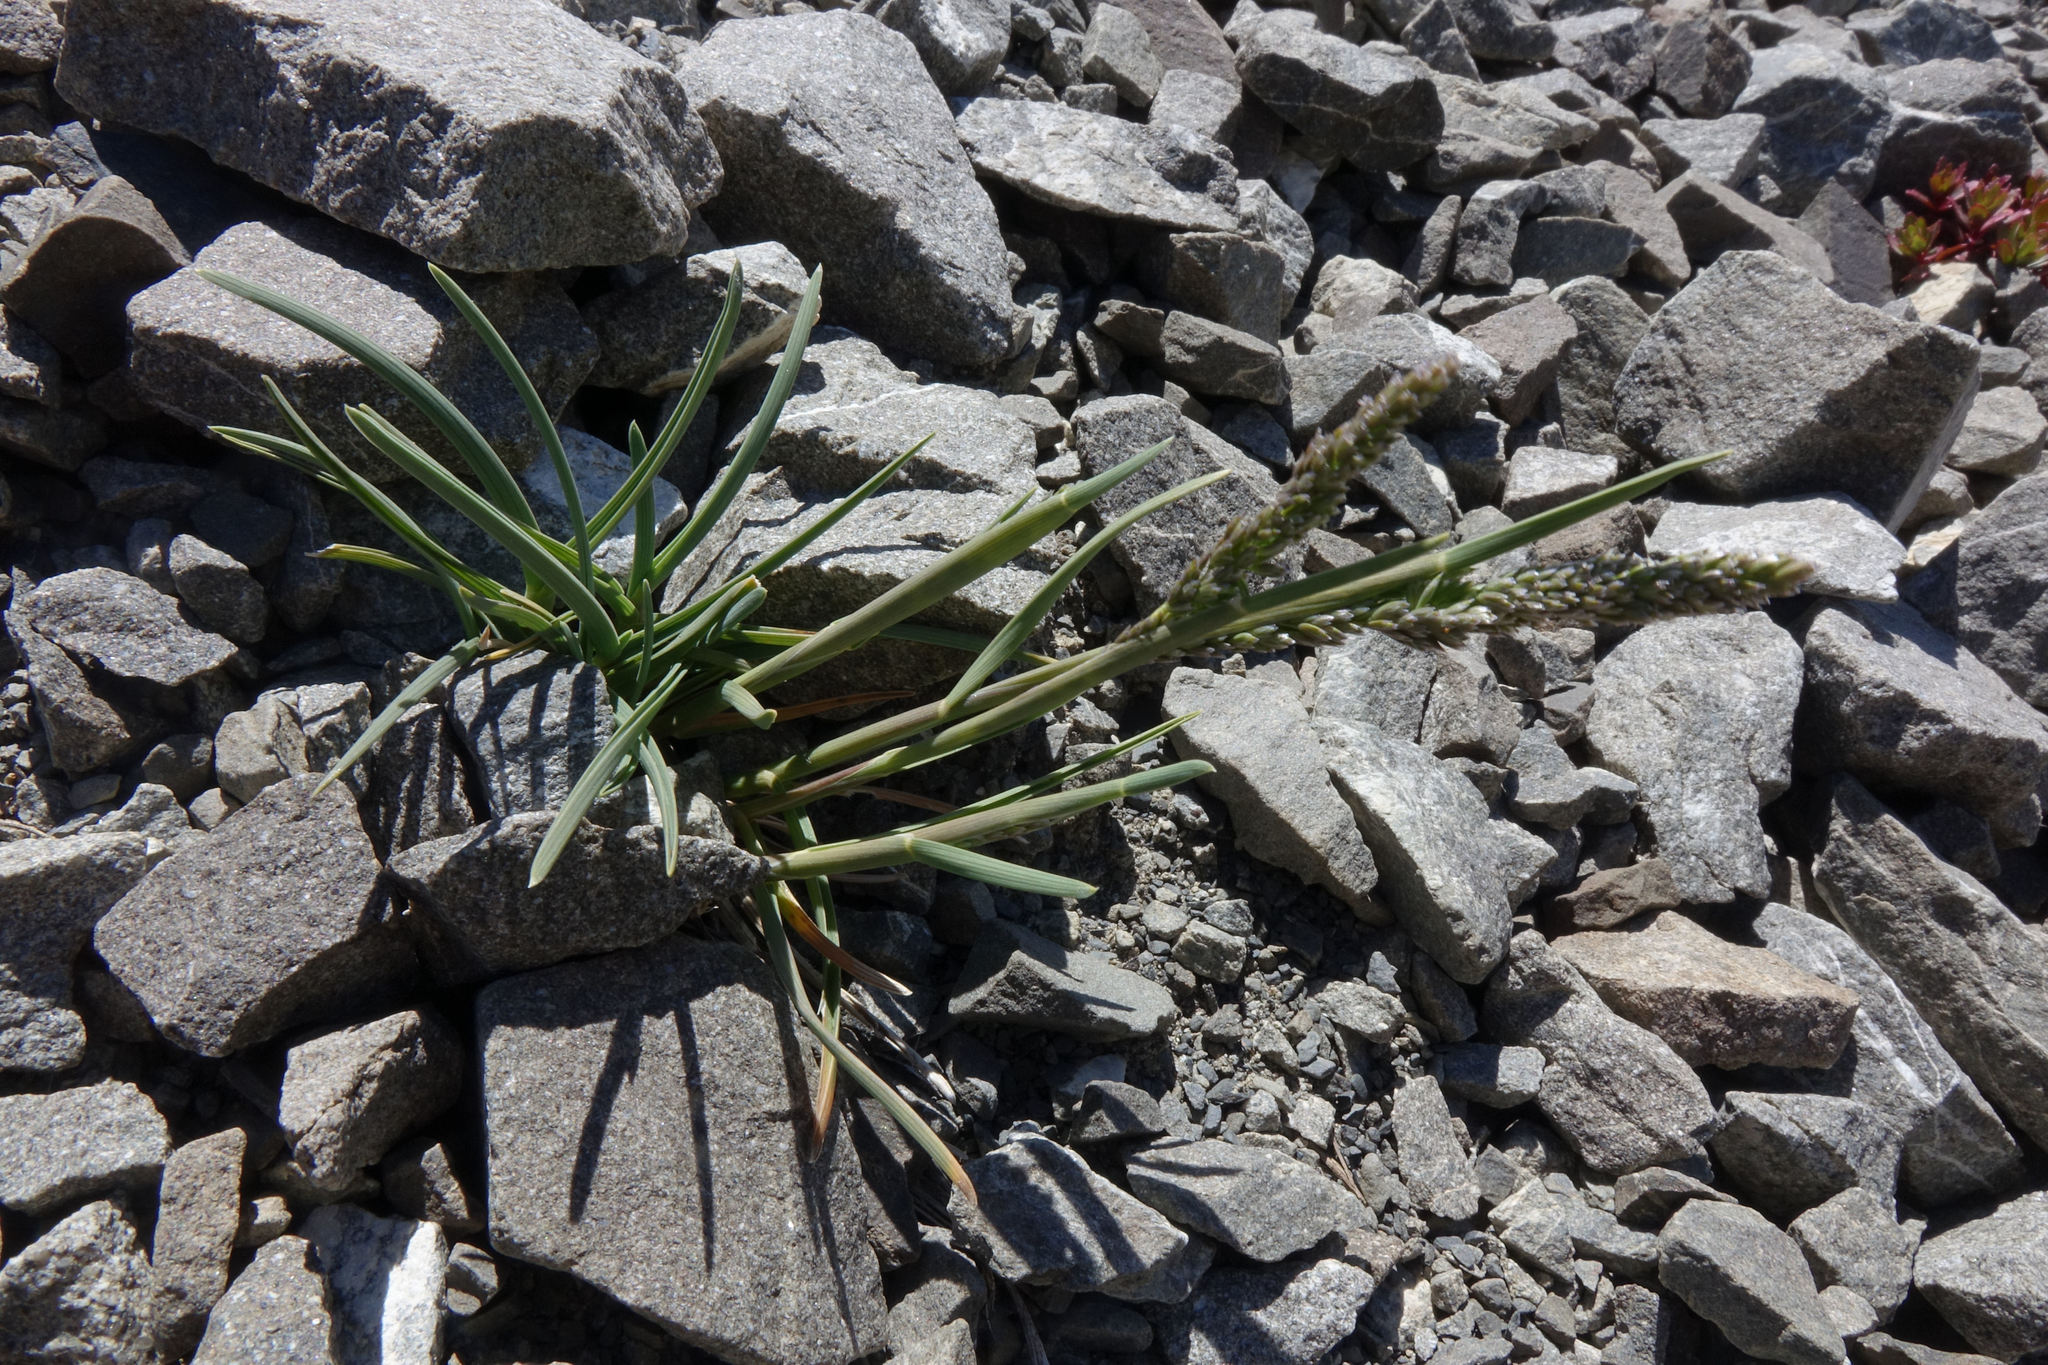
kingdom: Plantae
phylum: Tracheophyta
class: Liliopsida
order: Poales
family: Poaceae
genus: Poa
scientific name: Poa buchananii
